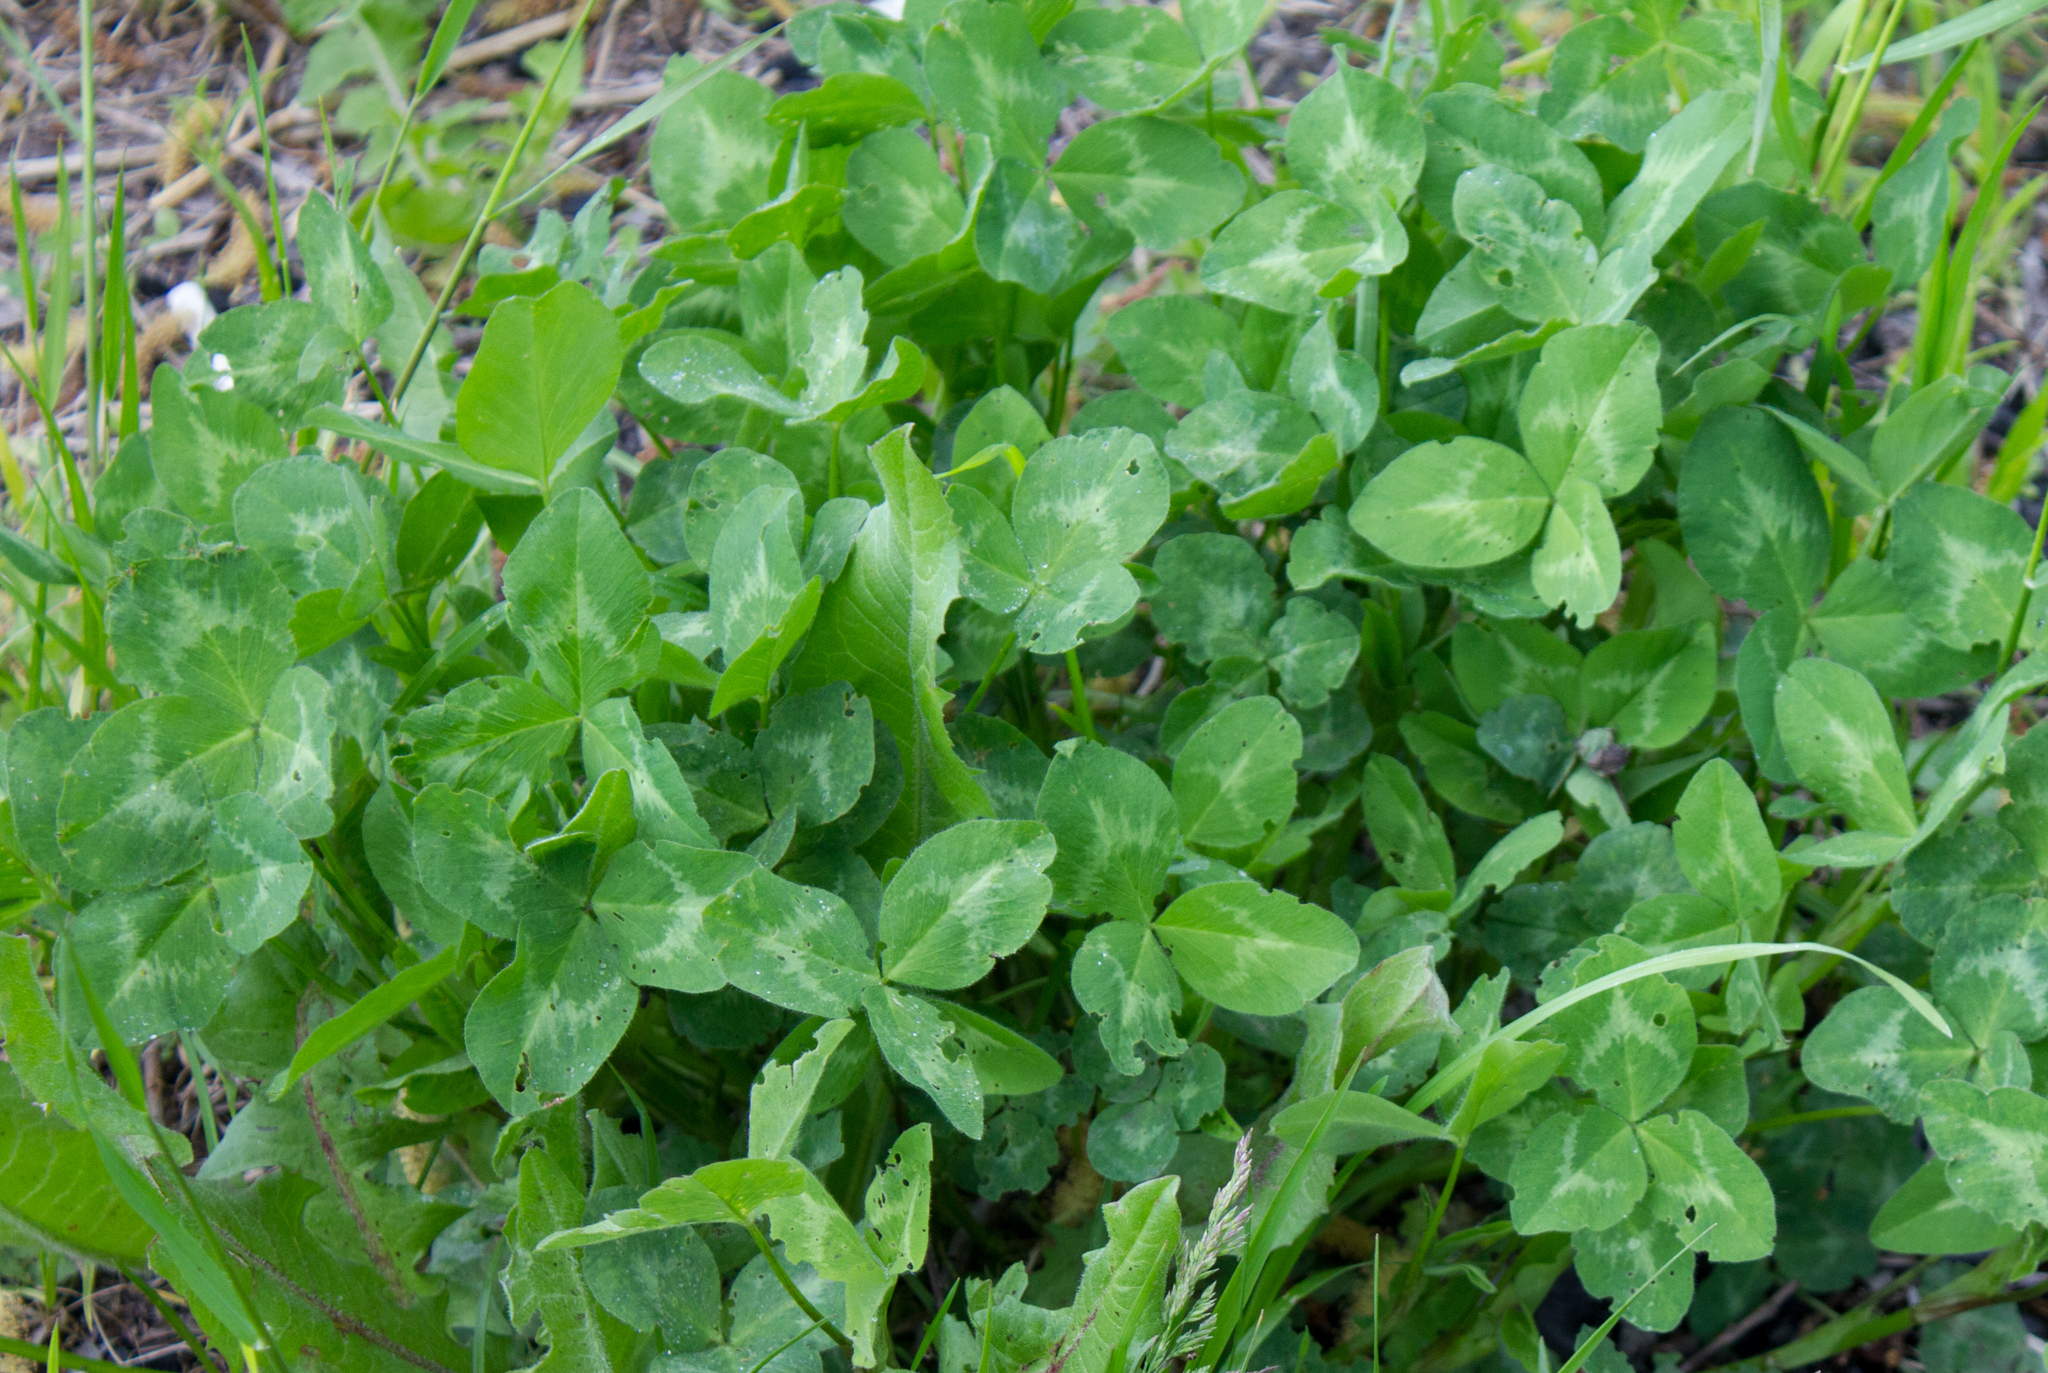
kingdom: Plantae
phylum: Tracheophyta
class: Magnoliopsida
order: Fabales
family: Fabaceae
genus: Trifolium
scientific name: Trifolium pratense
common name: Red clover
